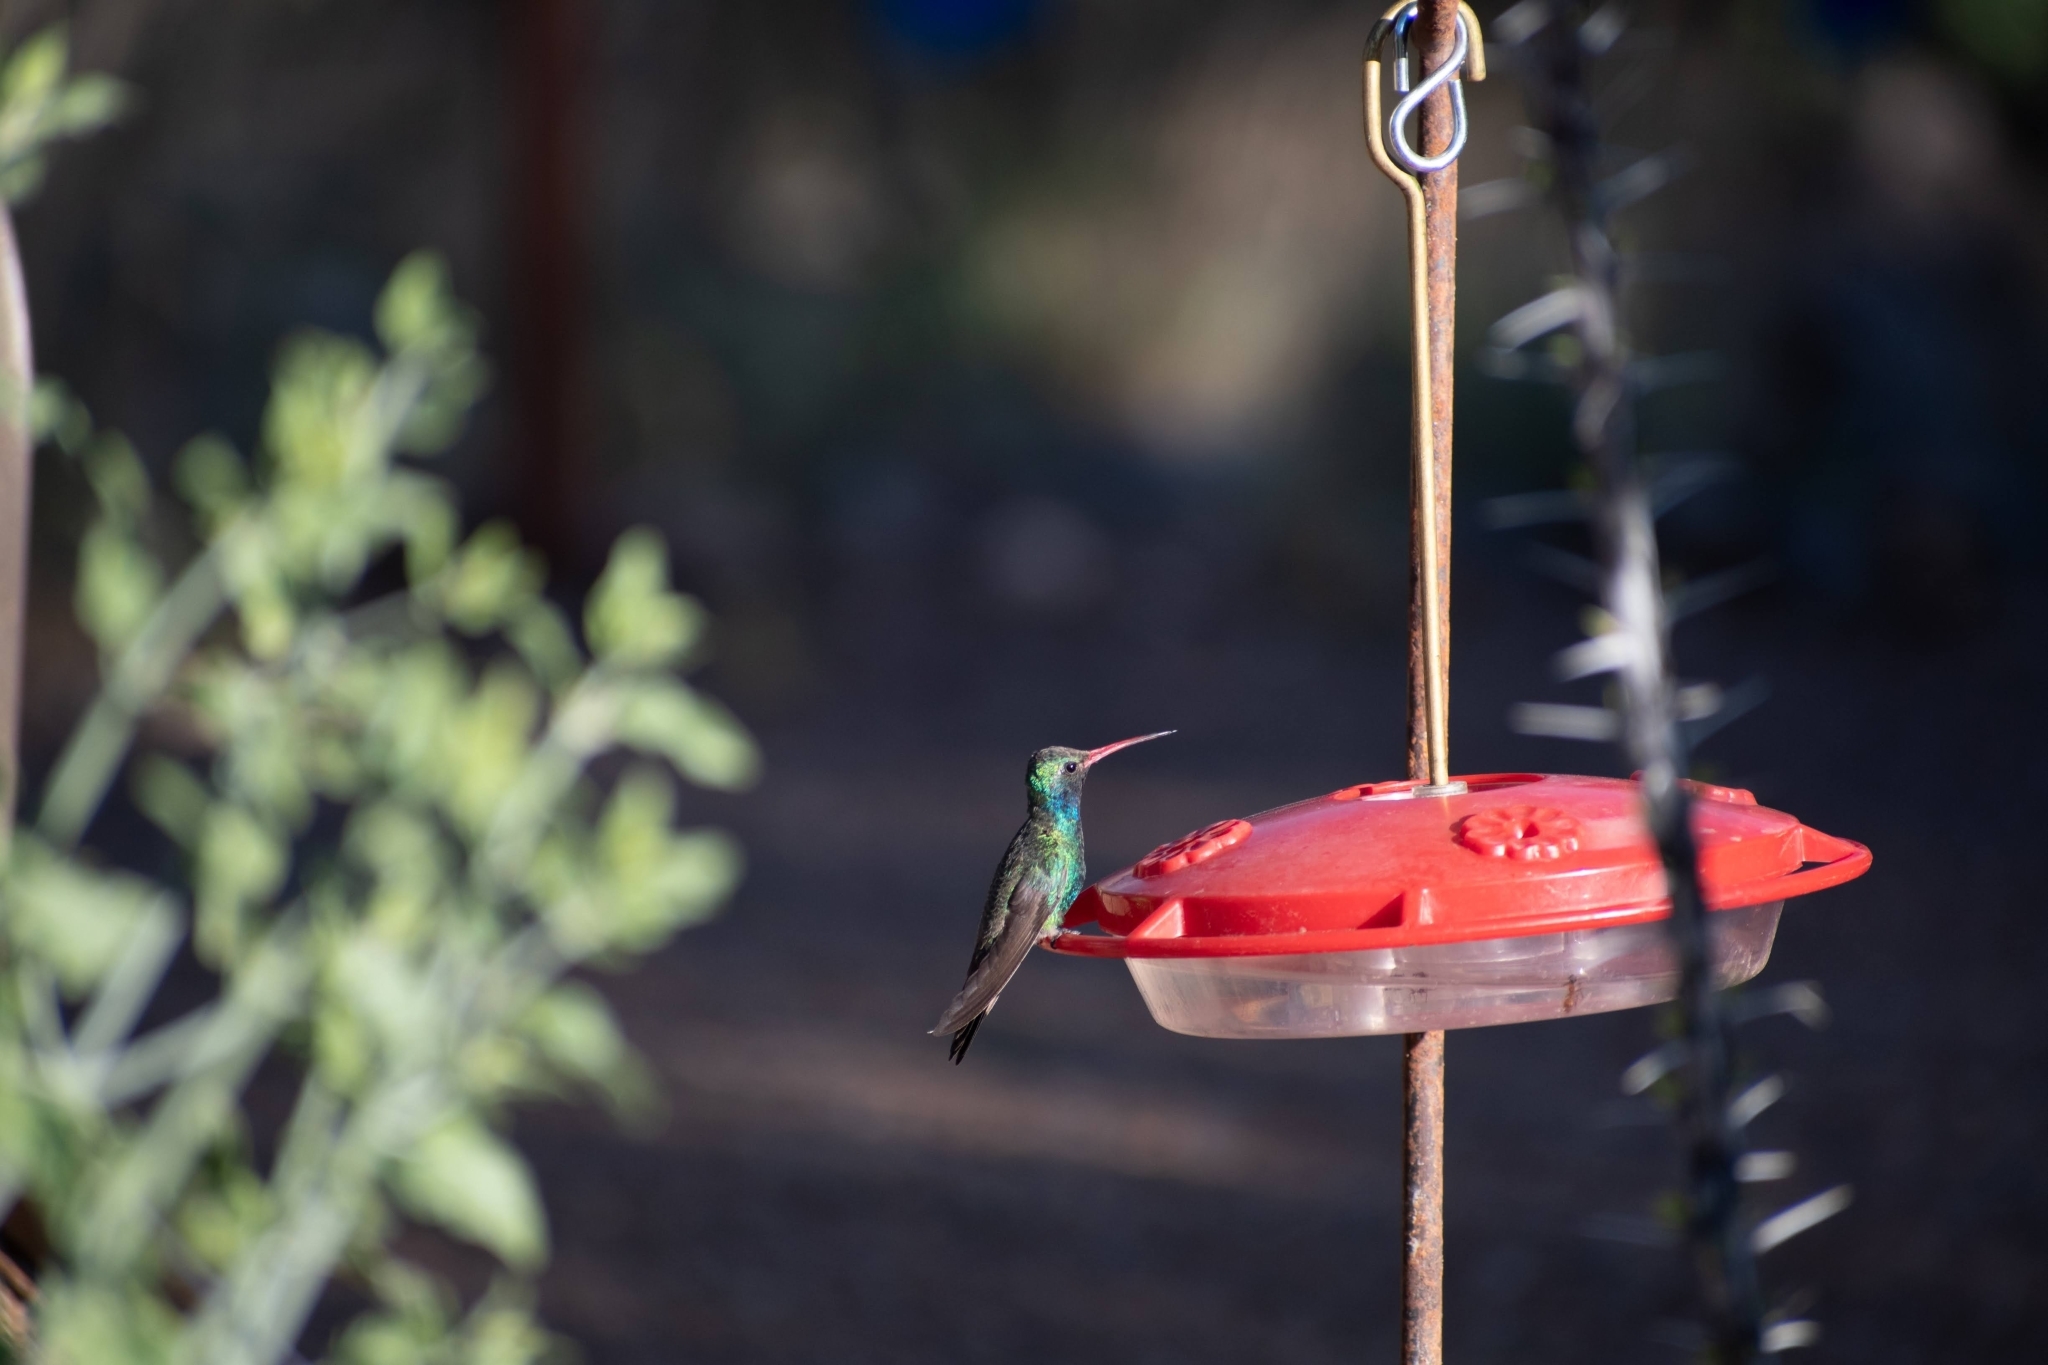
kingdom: Animalia
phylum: Chordata
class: Aves
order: Apodiformes
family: Trochilidae
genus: Cynanthus
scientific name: Cynanthus latirostris
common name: Broad-billed hummingbird
